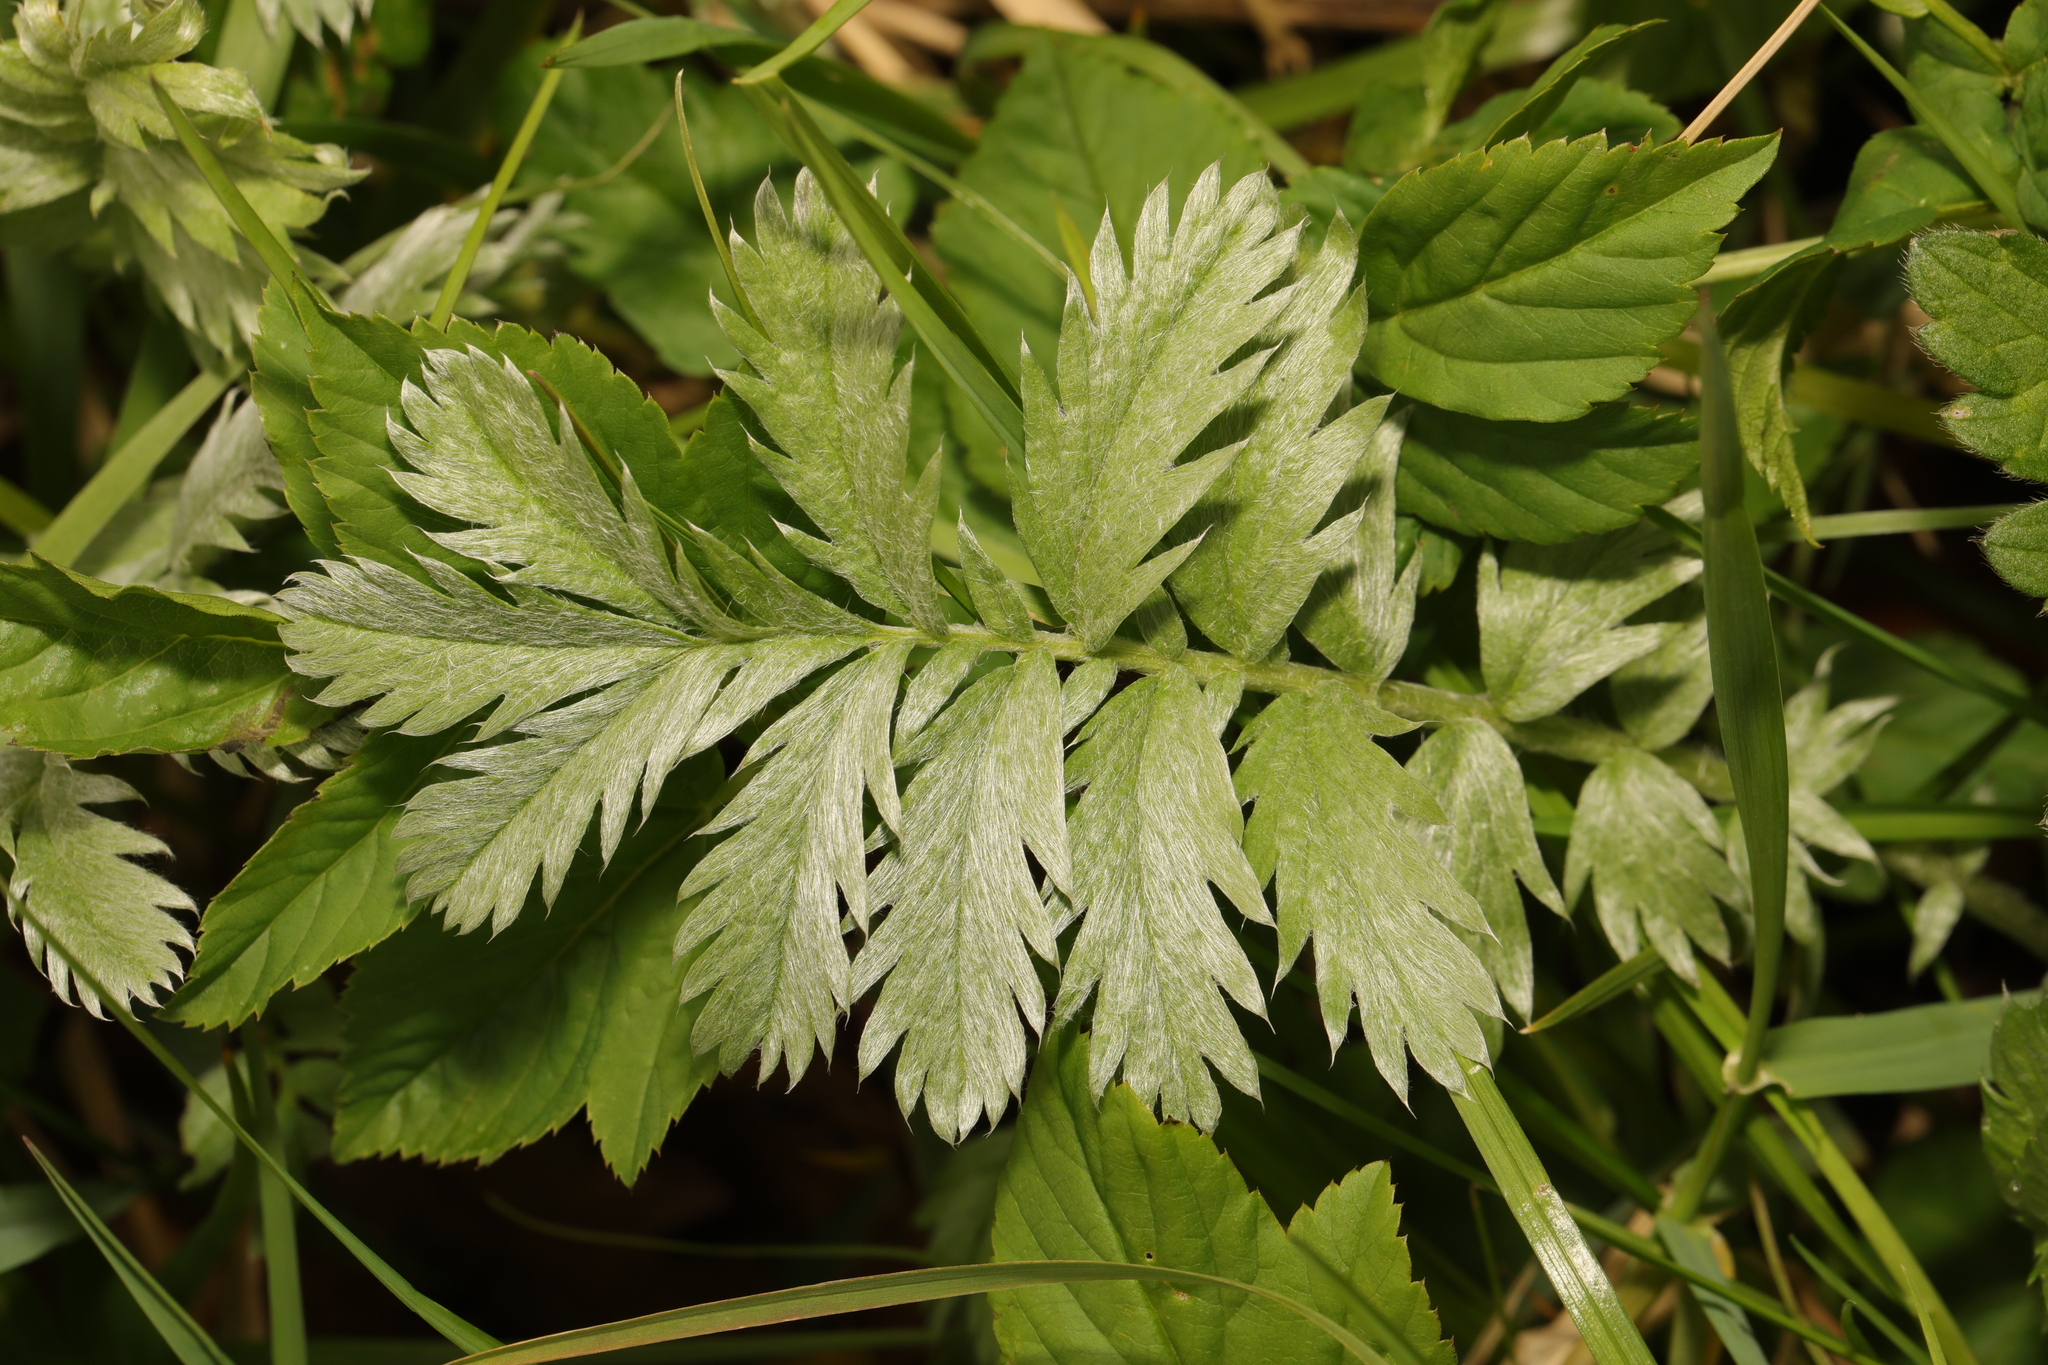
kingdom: Plantae
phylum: Tracheophyta
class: Magnoliopsida
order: Rosales
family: Rosaceae
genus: Argentina
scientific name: Argentina anserina
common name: Common silverweed
